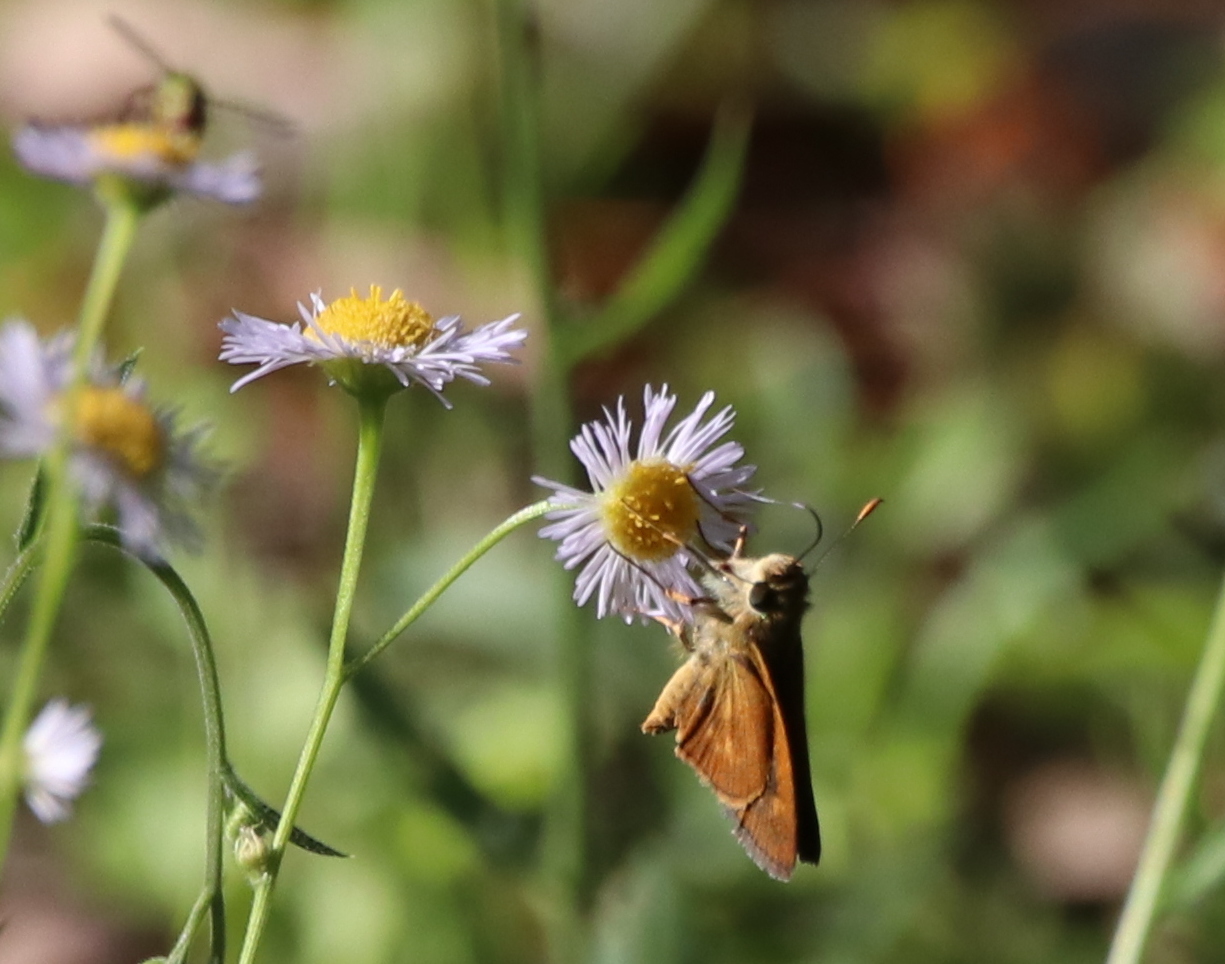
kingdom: Animalia
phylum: Arthropoda
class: Insecta
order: Lepidoptera
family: Hesperiidae
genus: Polites
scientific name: Polites otho
